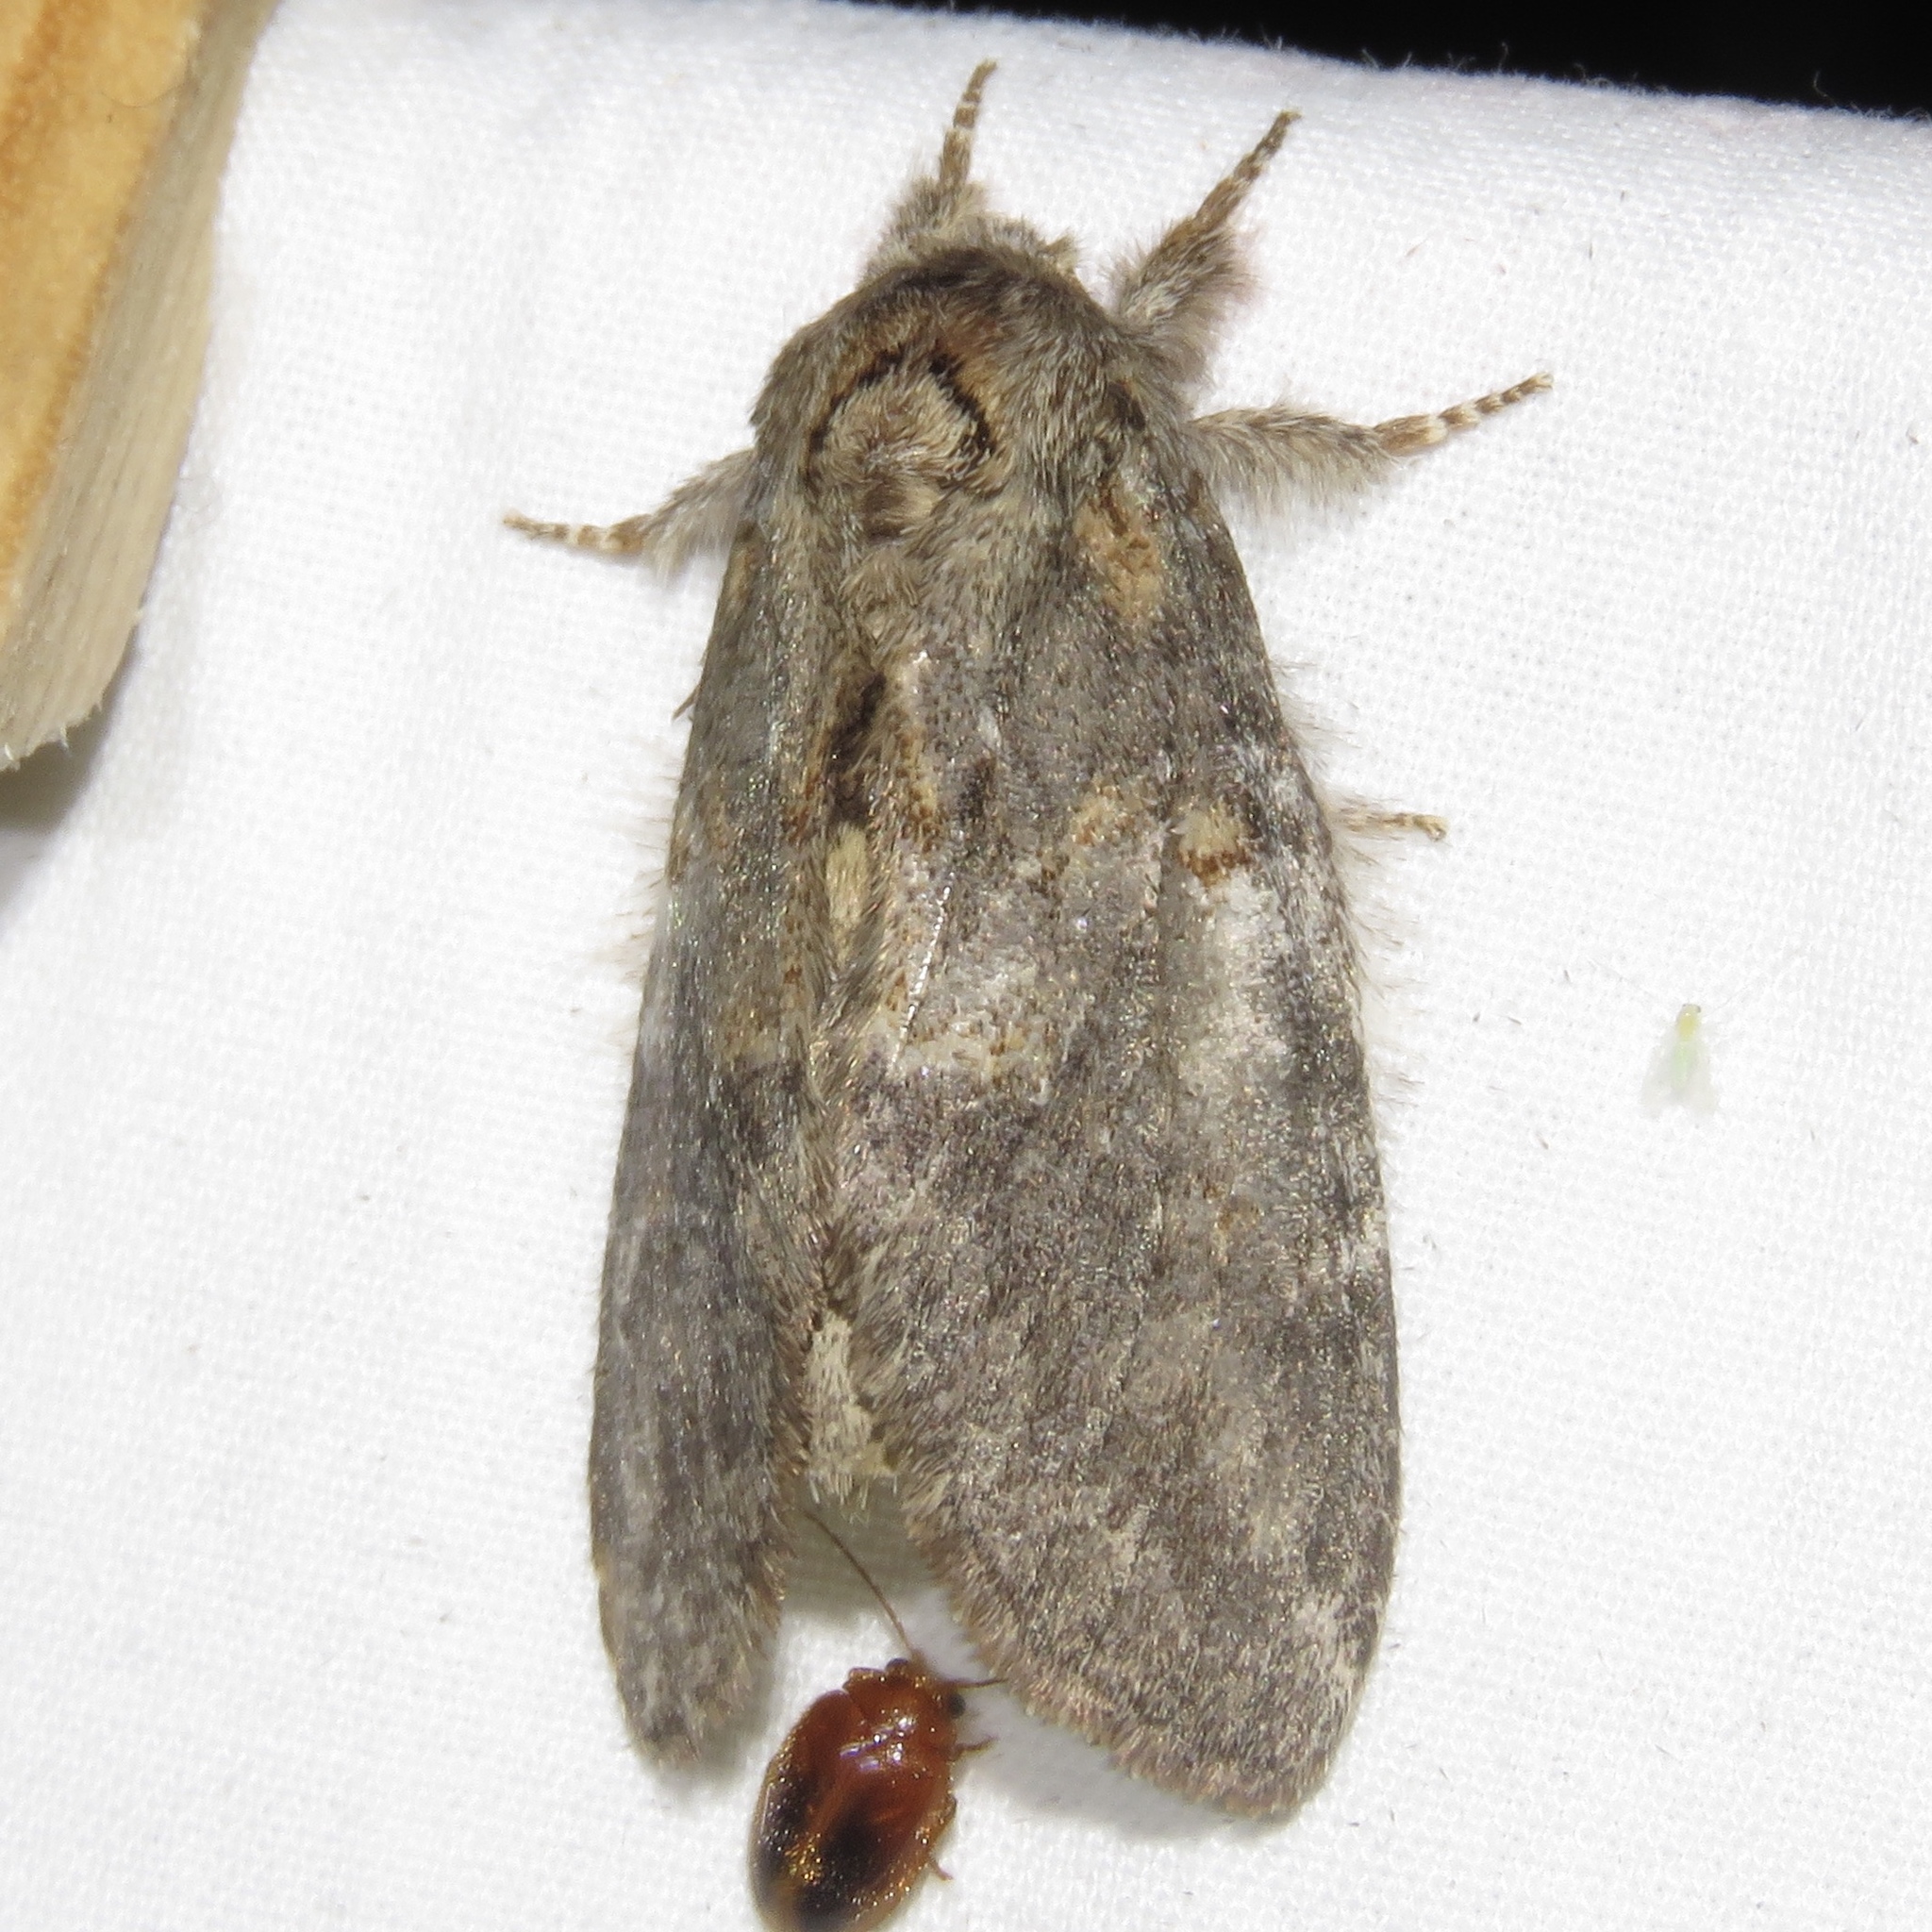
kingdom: Animalia
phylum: Arthropoda
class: Insecta
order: Lepidoptera
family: Notodontidae
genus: Peridea
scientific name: Peridea angulosa
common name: Angulose prominent
